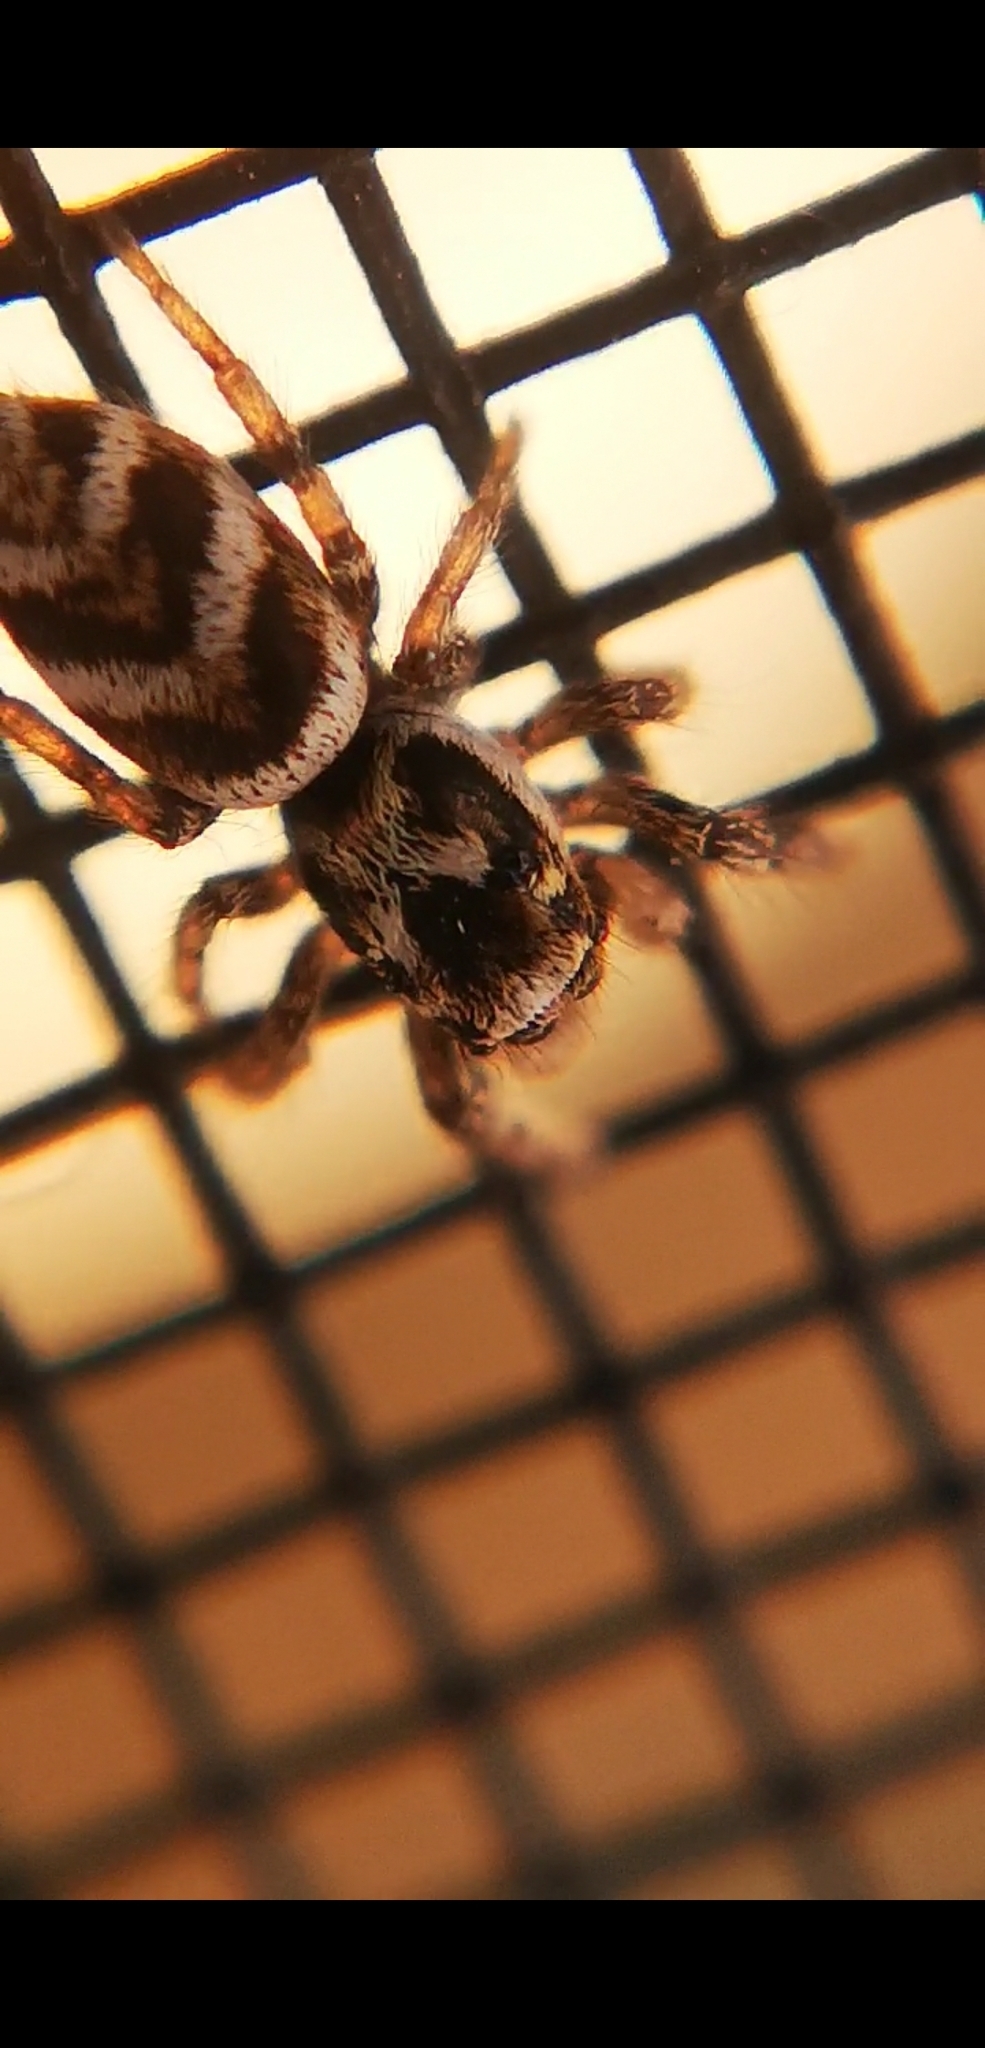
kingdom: Animalia
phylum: Arthropoda
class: Arachnida
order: Araneae
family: Salticidae
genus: Salticus
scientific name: Salticus scenicus
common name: Zebra jumper
